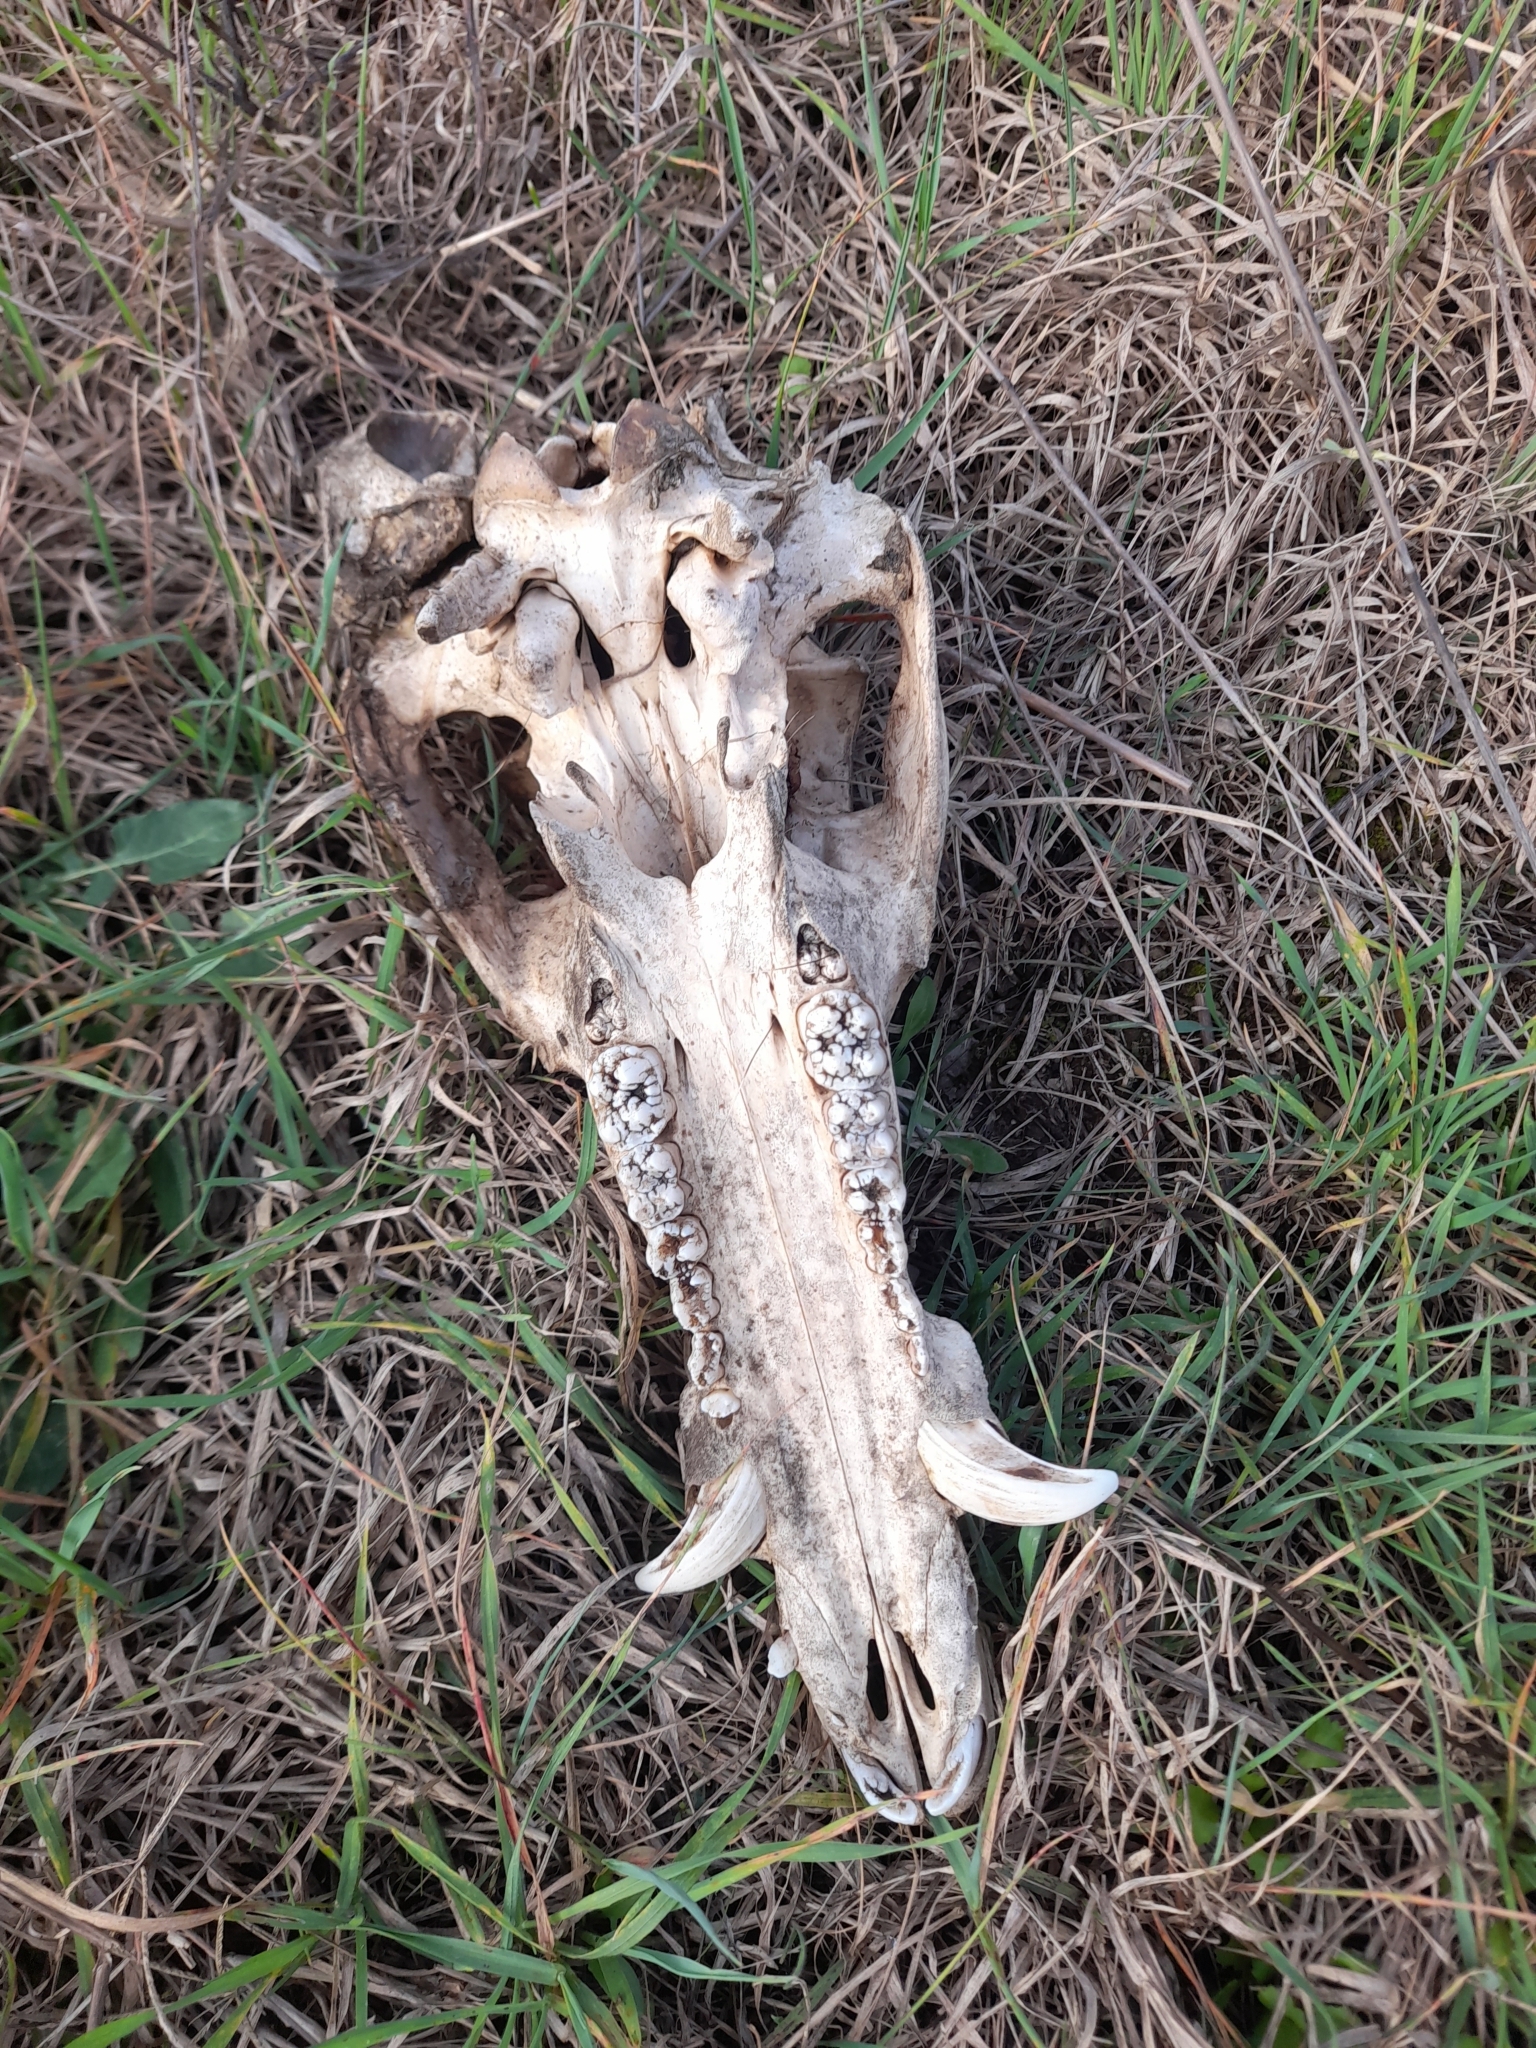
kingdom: Animalia
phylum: Chordata
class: Mammalia
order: Artiodactyla
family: Suidae
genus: Sus
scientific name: Sus scrofa
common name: Wild boar
